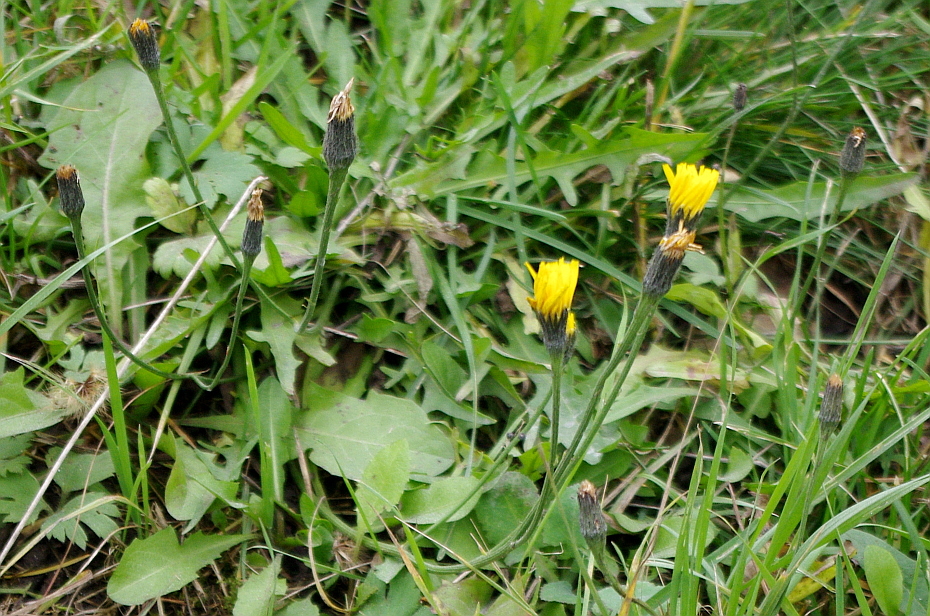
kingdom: Plantae
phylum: Tracheophyta
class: Magnoliopsida
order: Asterales
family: Asteraceae
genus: Scorzoneroides
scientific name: Scorzoneroides autumnalis
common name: Autumn hawkbit
